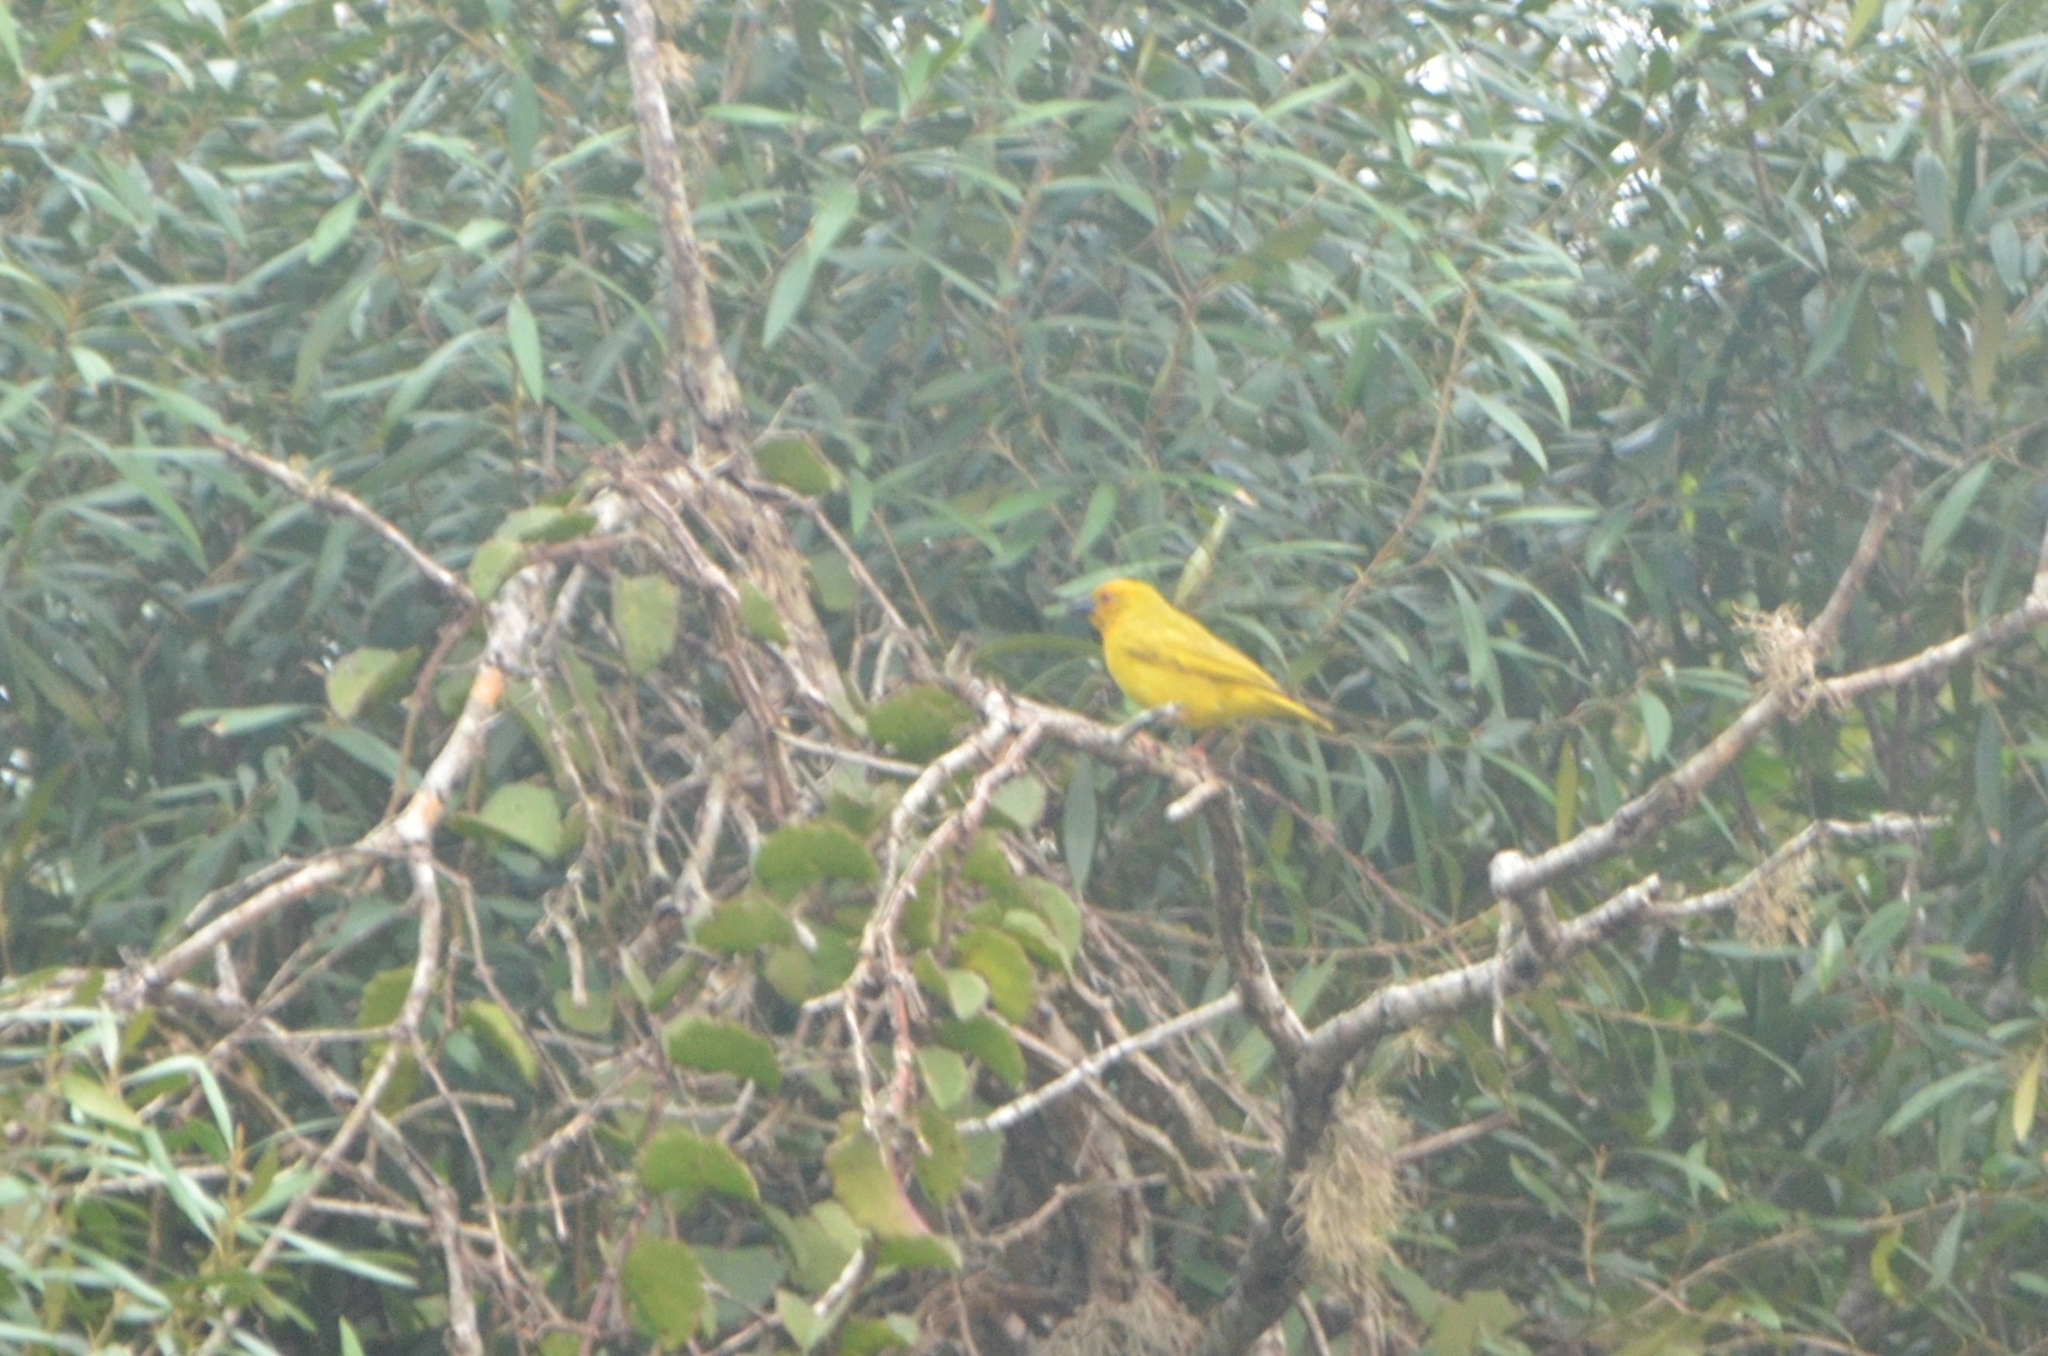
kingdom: Animalia
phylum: Chordata
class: Aves
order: Passeriformes
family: Ploceidae
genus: Ploceus
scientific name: Ploceus subaureus
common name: Yellow weaver
